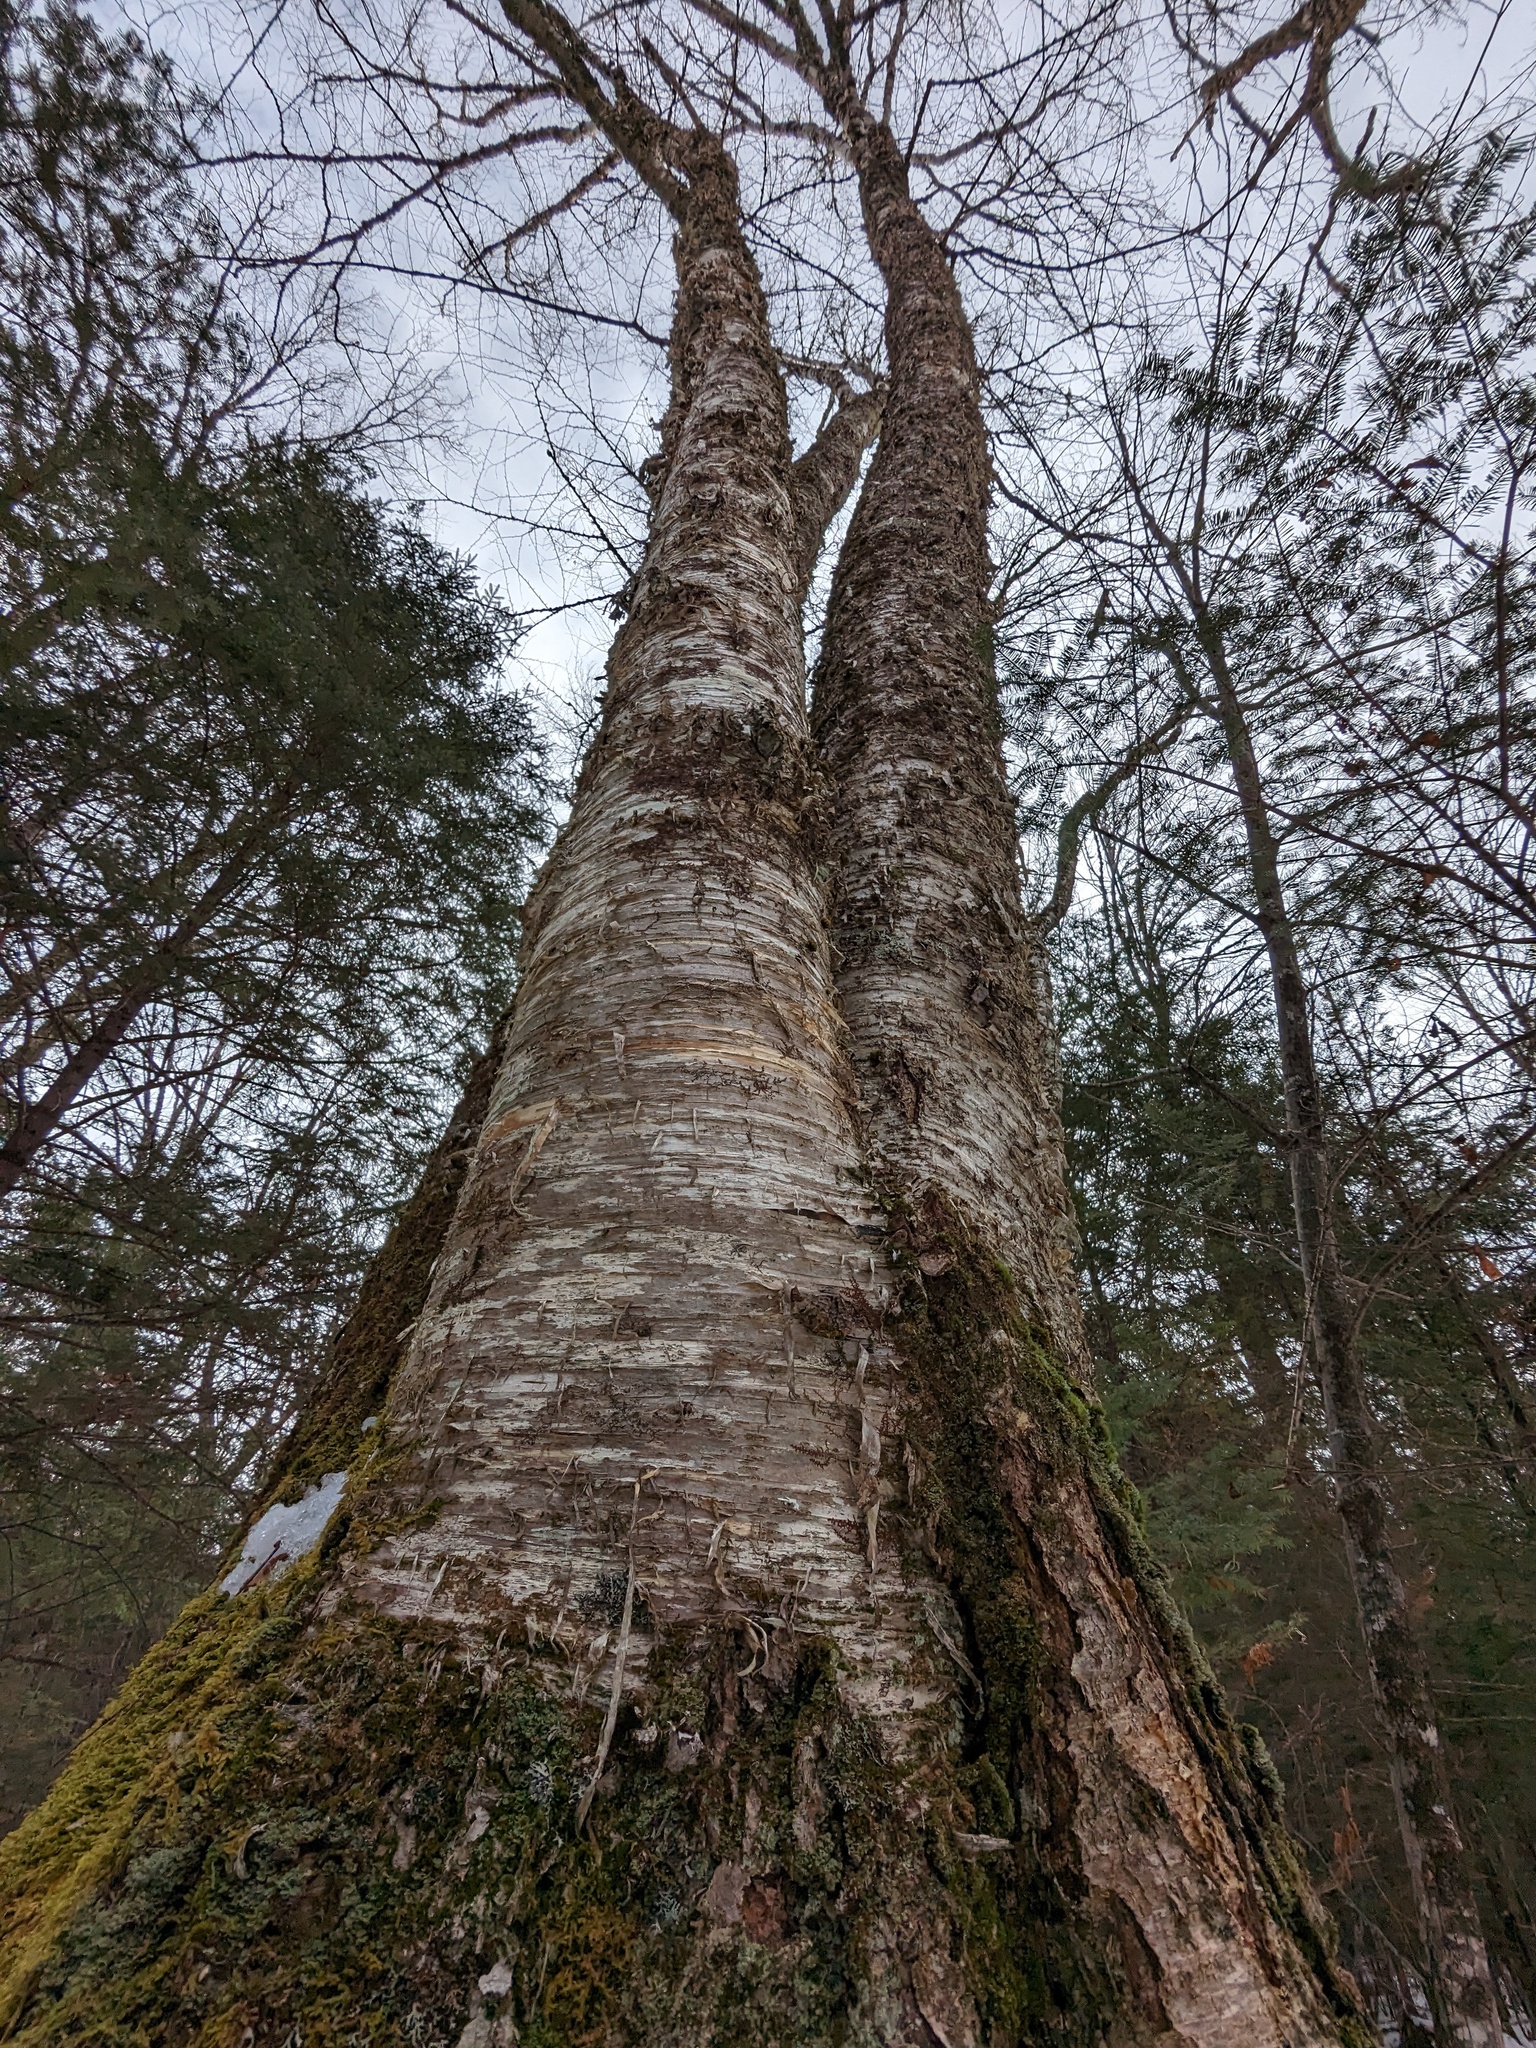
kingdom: Plantae
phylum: Tracheophyta
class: Magnoliopsida
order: Fagales
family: Betulaceae
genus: Betula
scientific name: Betula alleghaniensis
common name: Yellow birch
